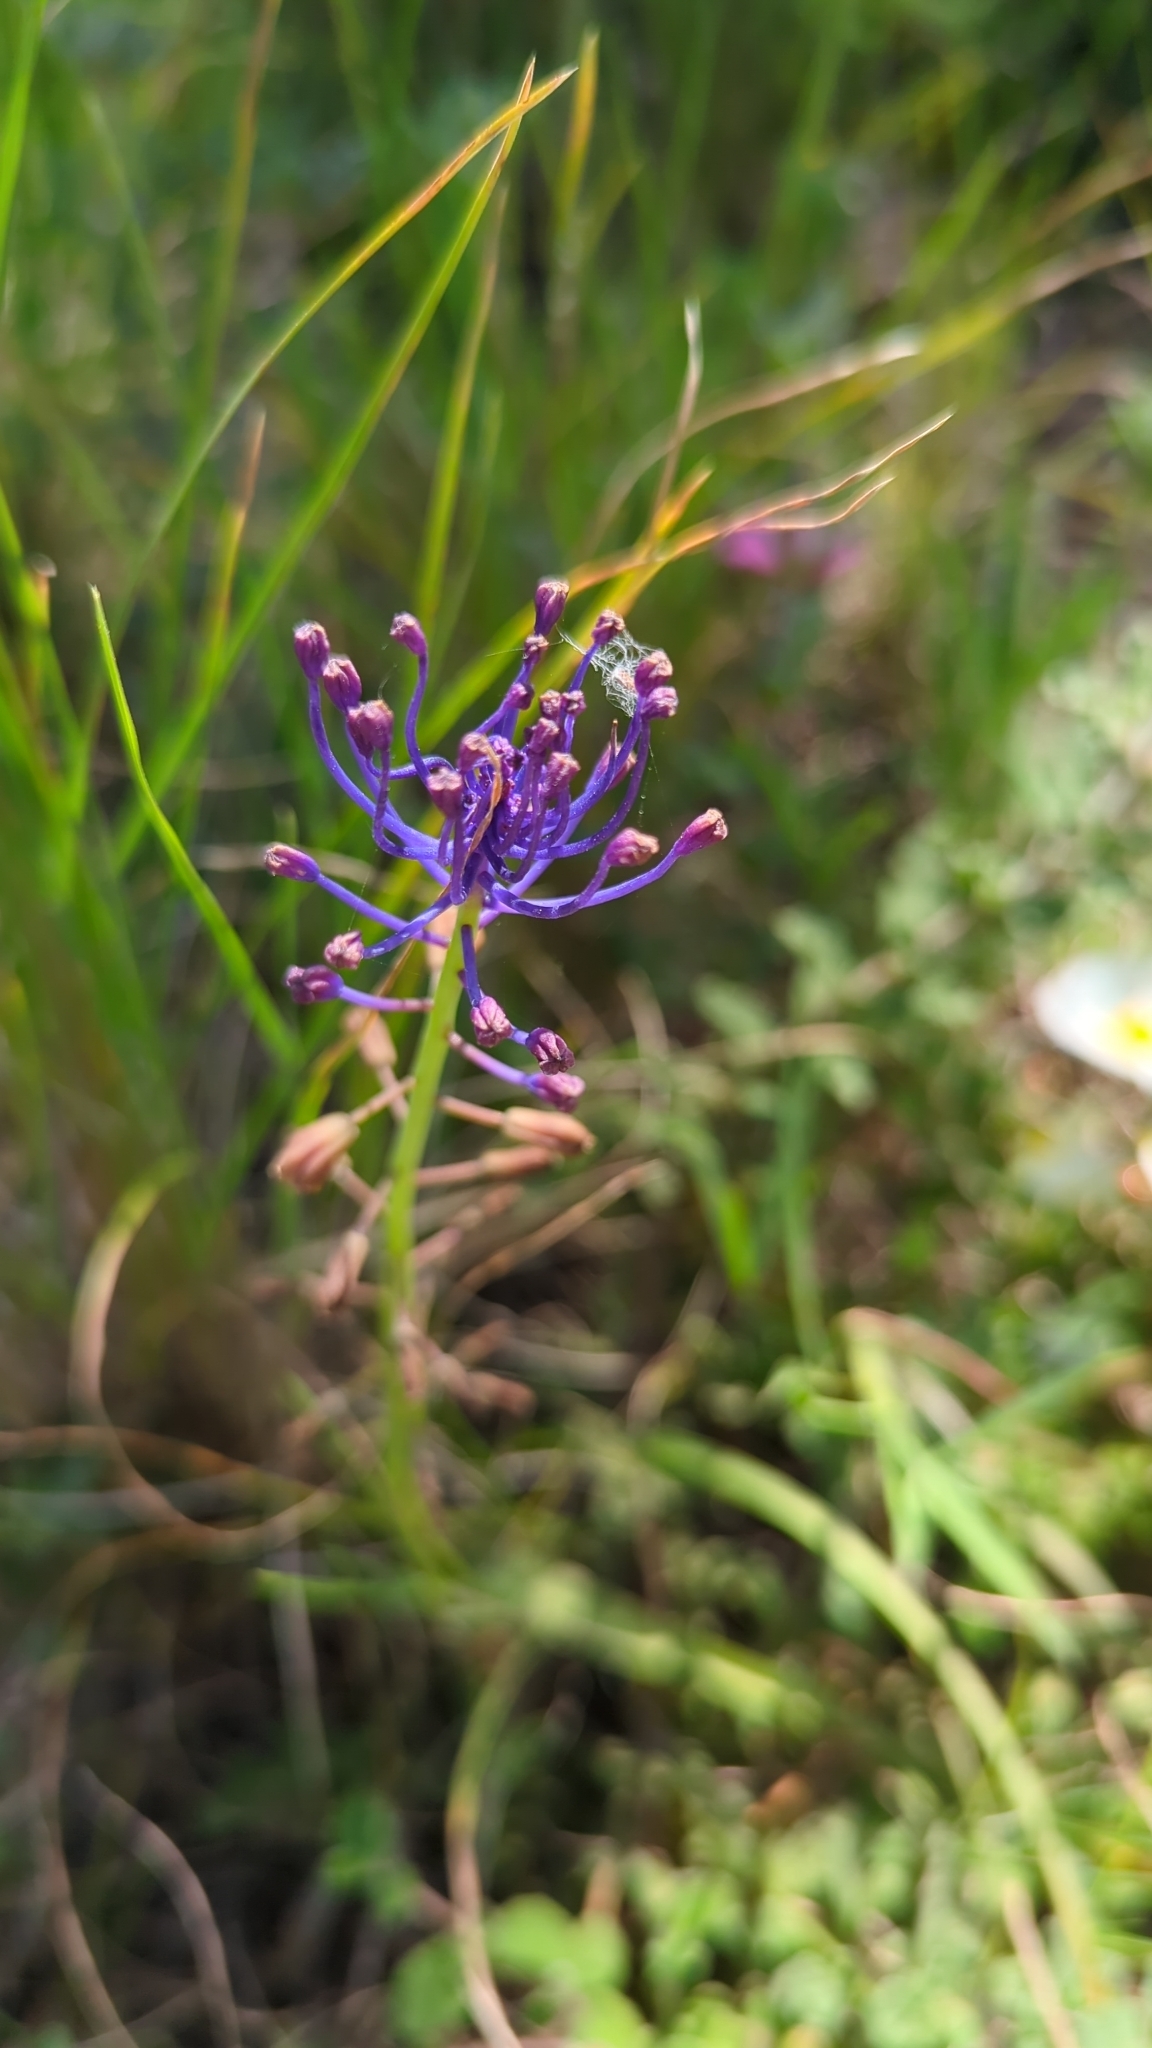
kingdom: Plantae
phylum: Tracheophyta
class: Liliopsida
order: Asparagales
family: Asparagaceae
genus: Muscari
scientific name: Muscari comosum
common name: Tassel hyacinth
